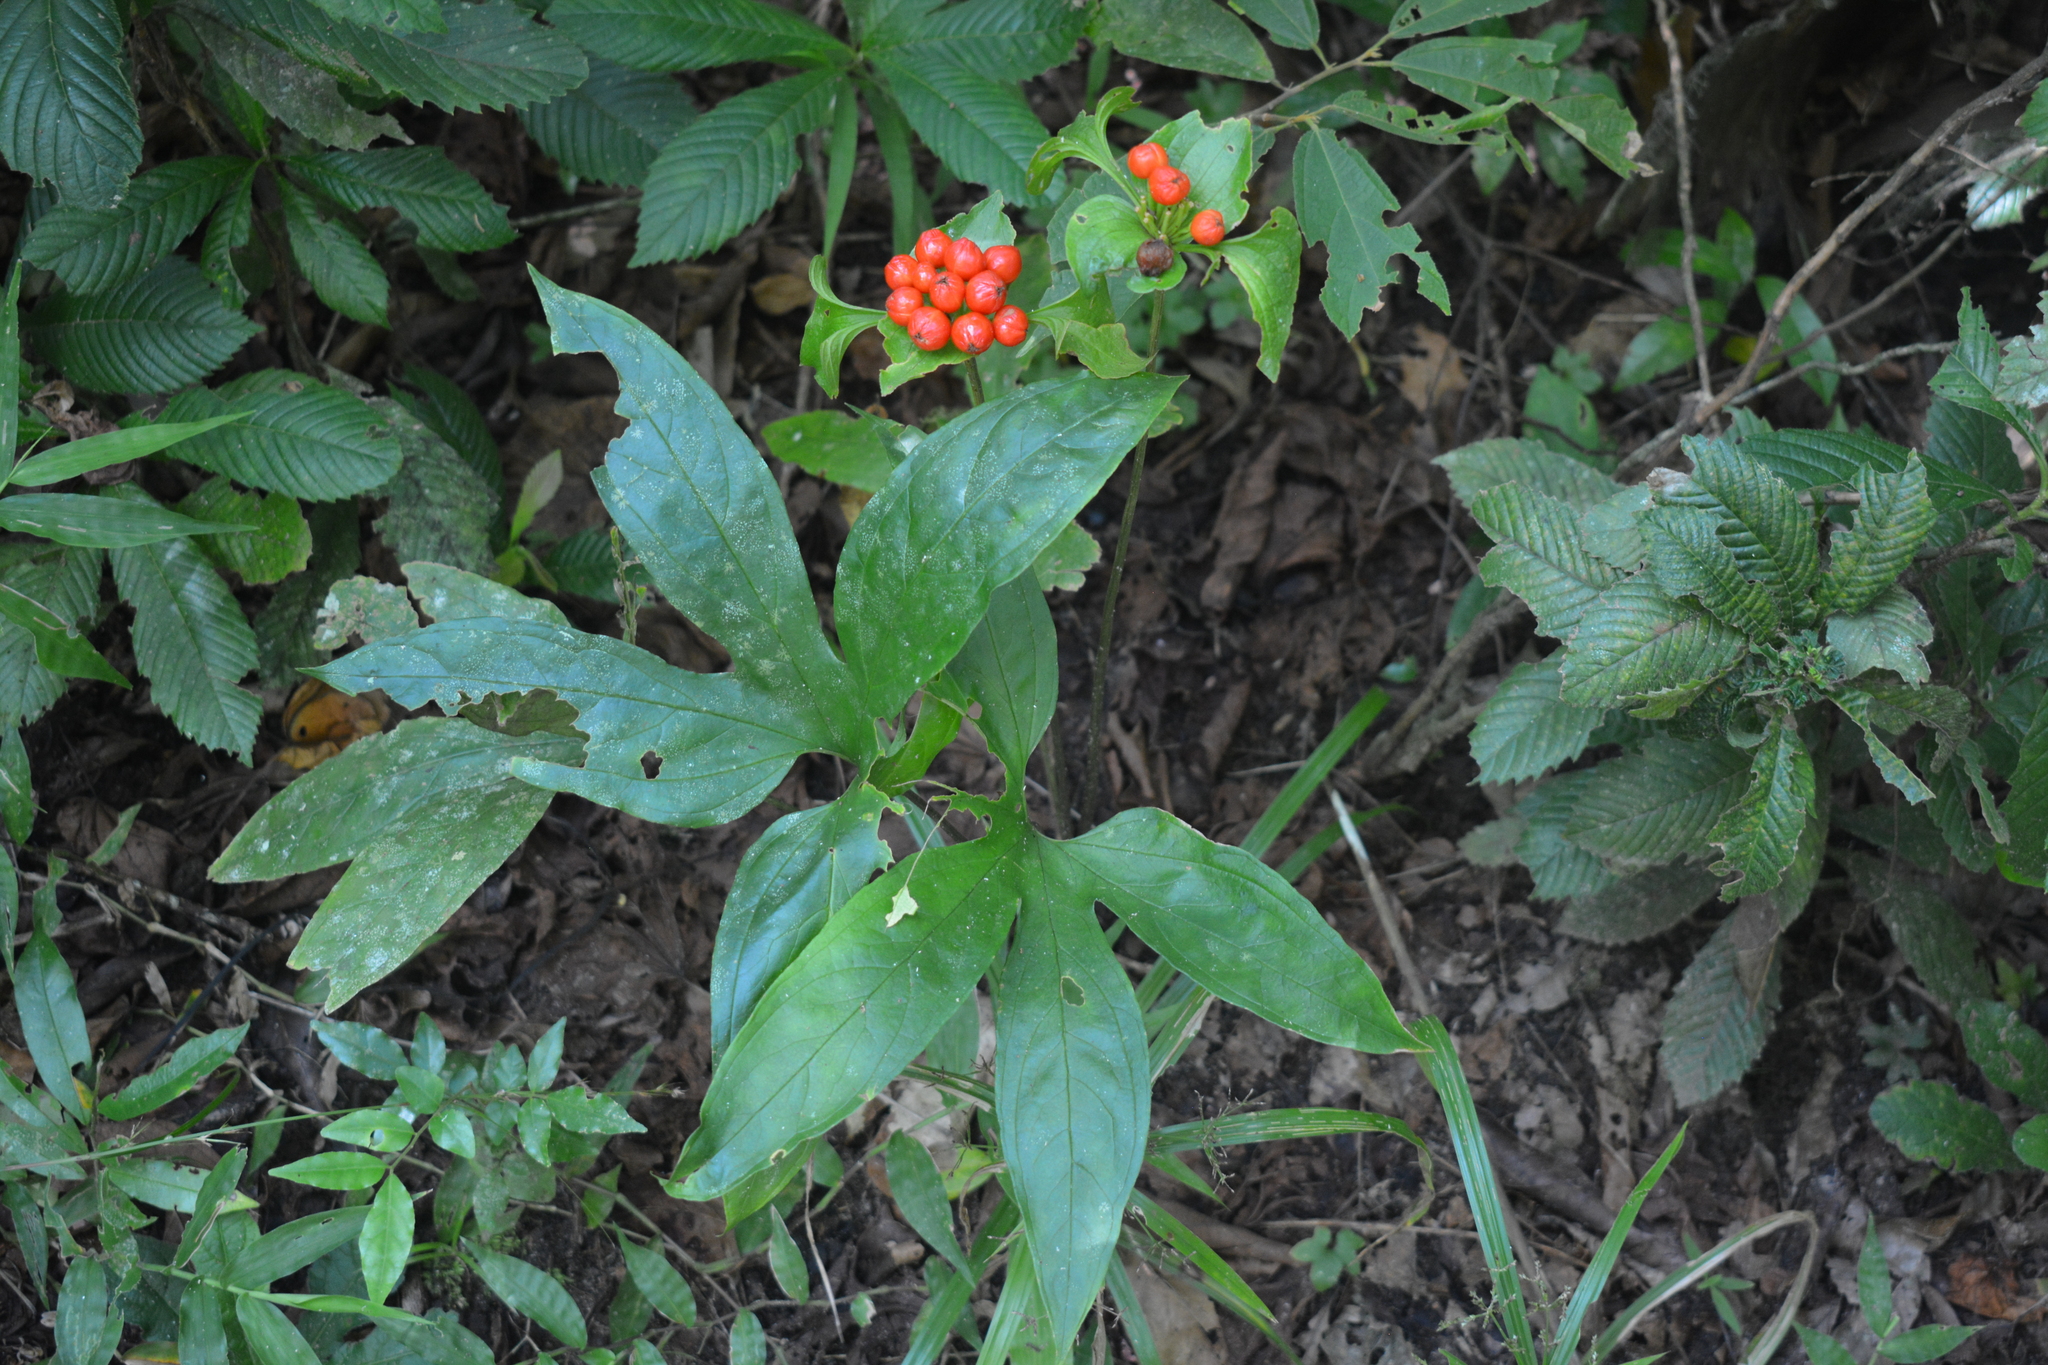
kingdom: Plantae
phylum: Tracheophyta
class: Liliopsida
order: Dioscoreales
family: Dioscoreaceae
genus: Tacca
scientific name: Tacca palmata
